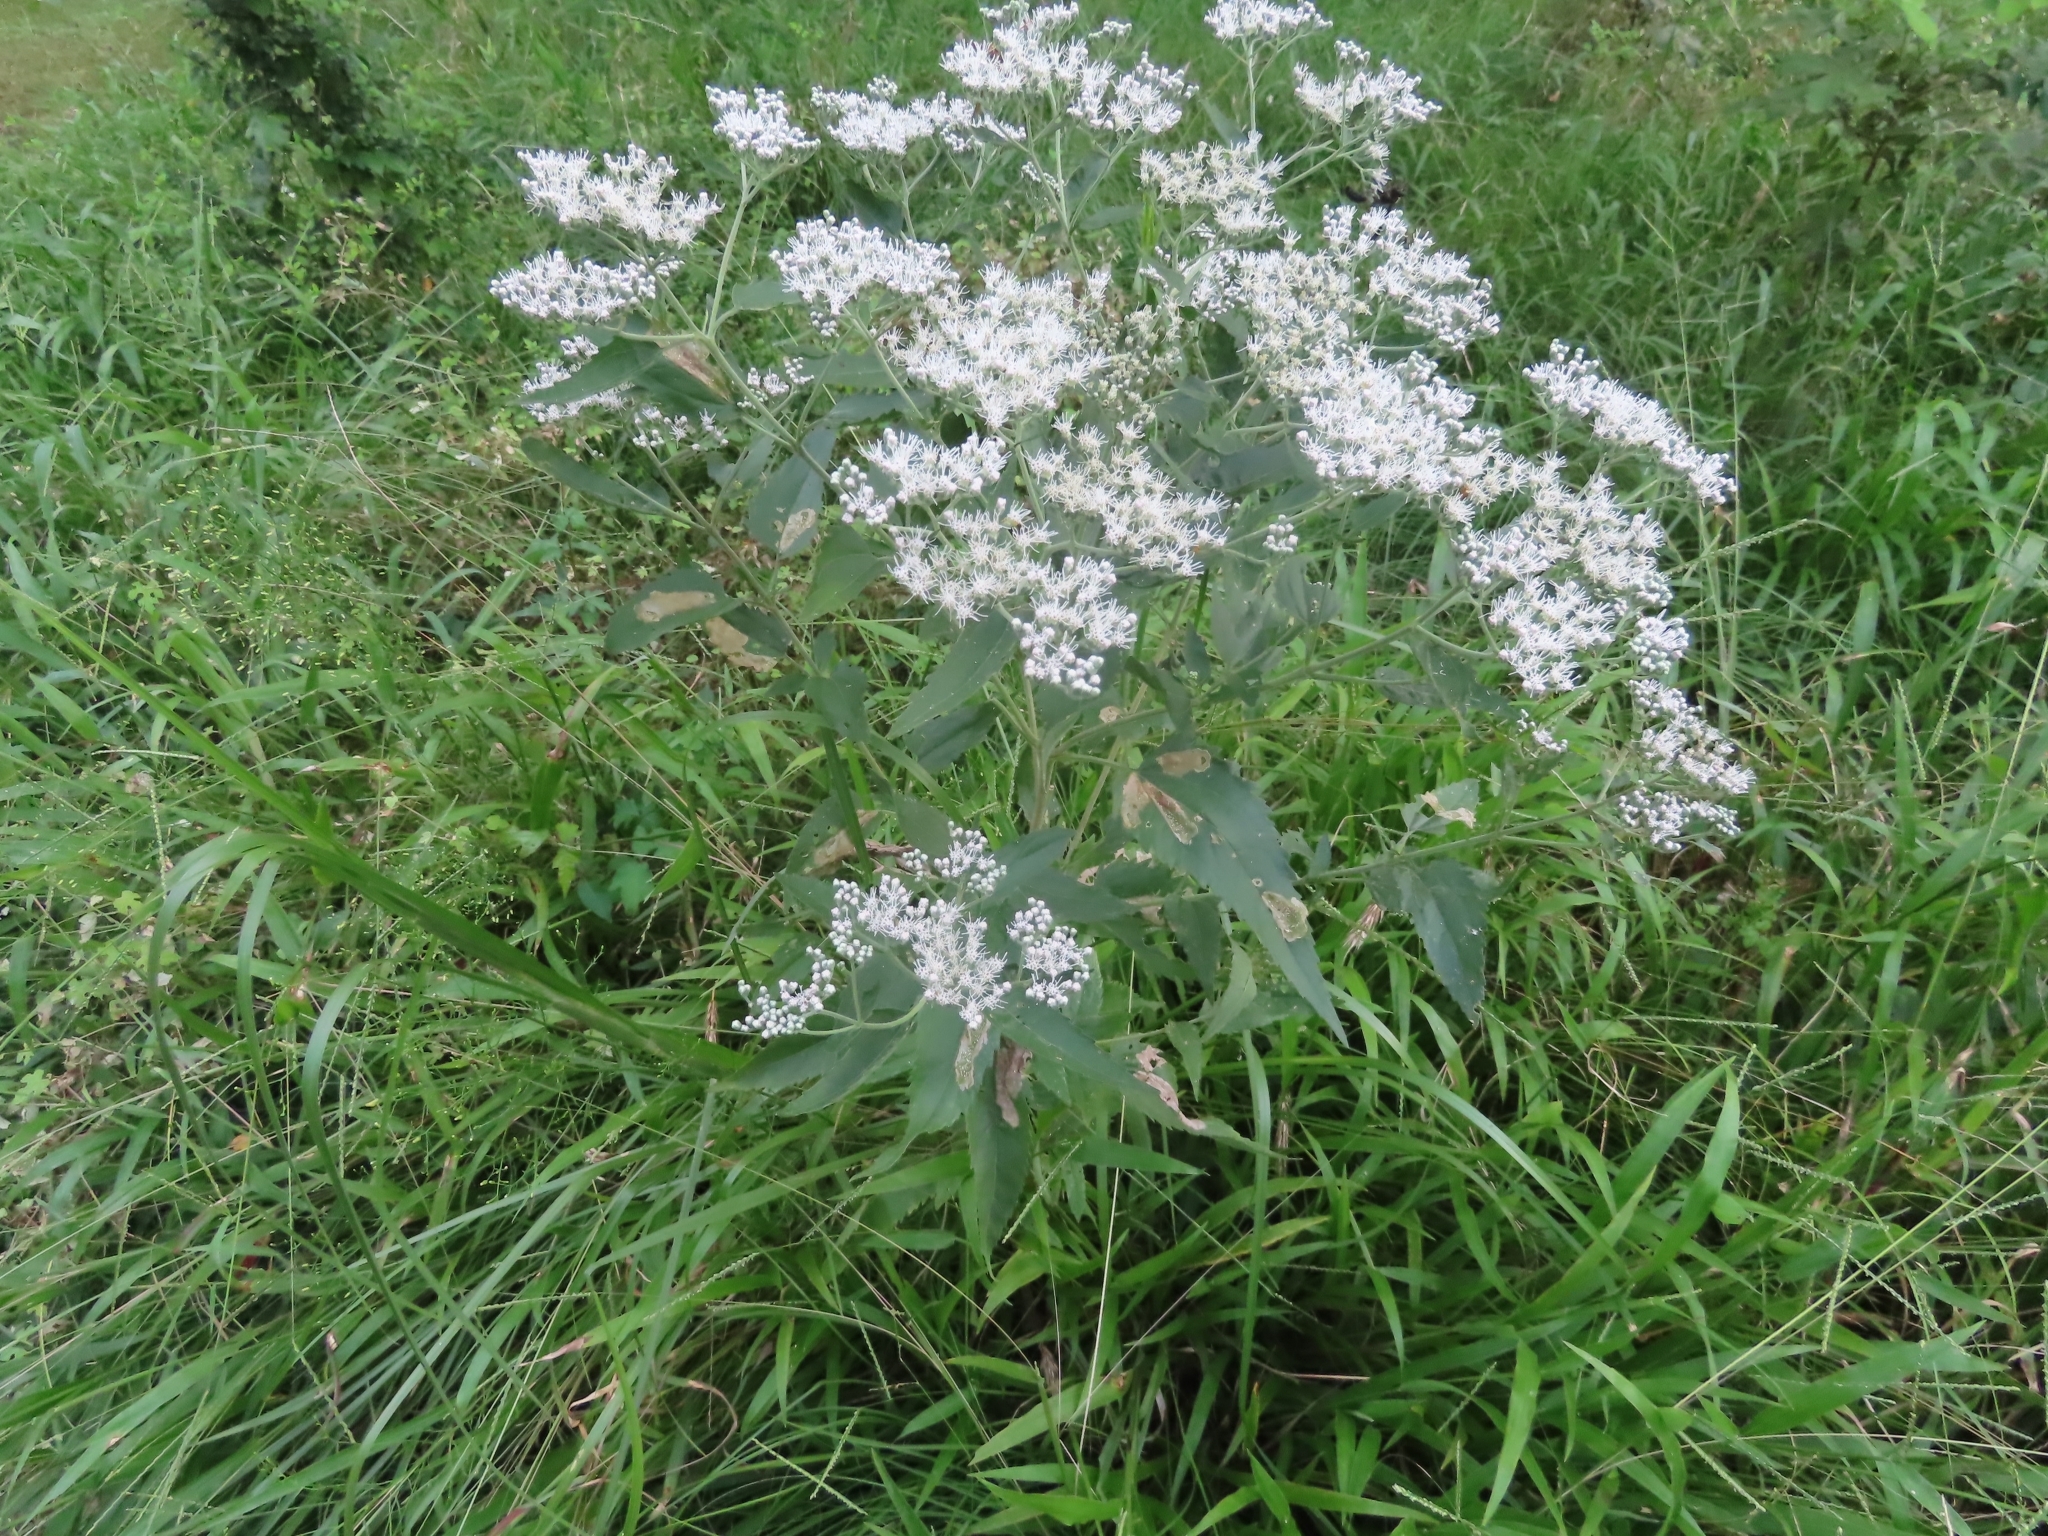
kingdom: Plantae
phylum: Tracheophyta
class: Magnoliopsida
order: Asterales
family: Asteraceae
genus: Eupatorium
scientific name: Eupatorium serotinum
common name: Late boneset
